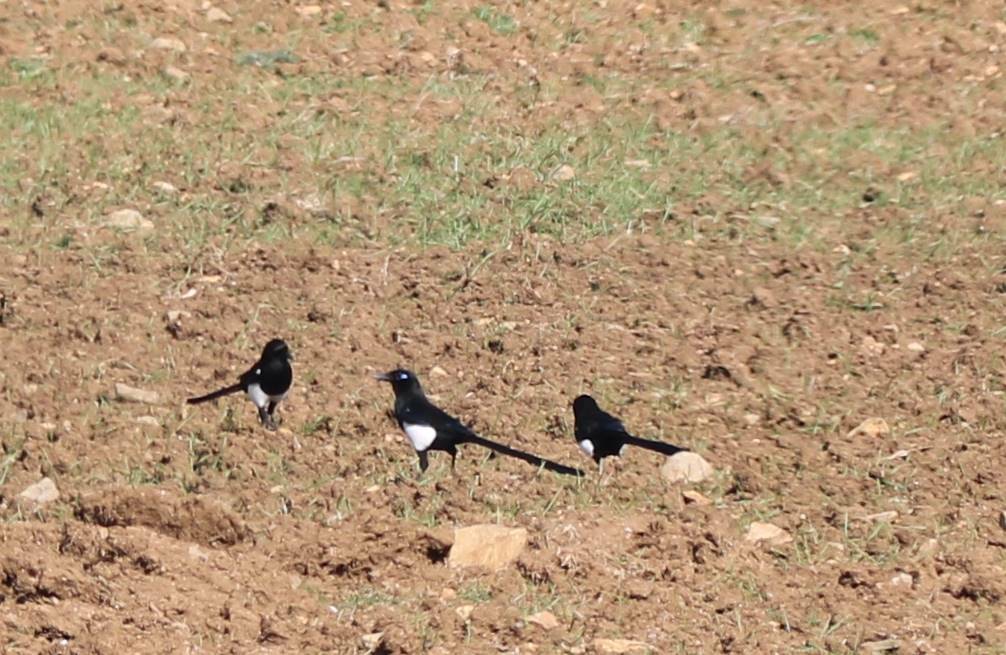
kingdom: Animalia
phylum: Chordata
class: Aves
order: Passeriformes
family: Corvidae
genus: Pica
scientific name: Pica mauritanica
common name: Maghreb magpie
